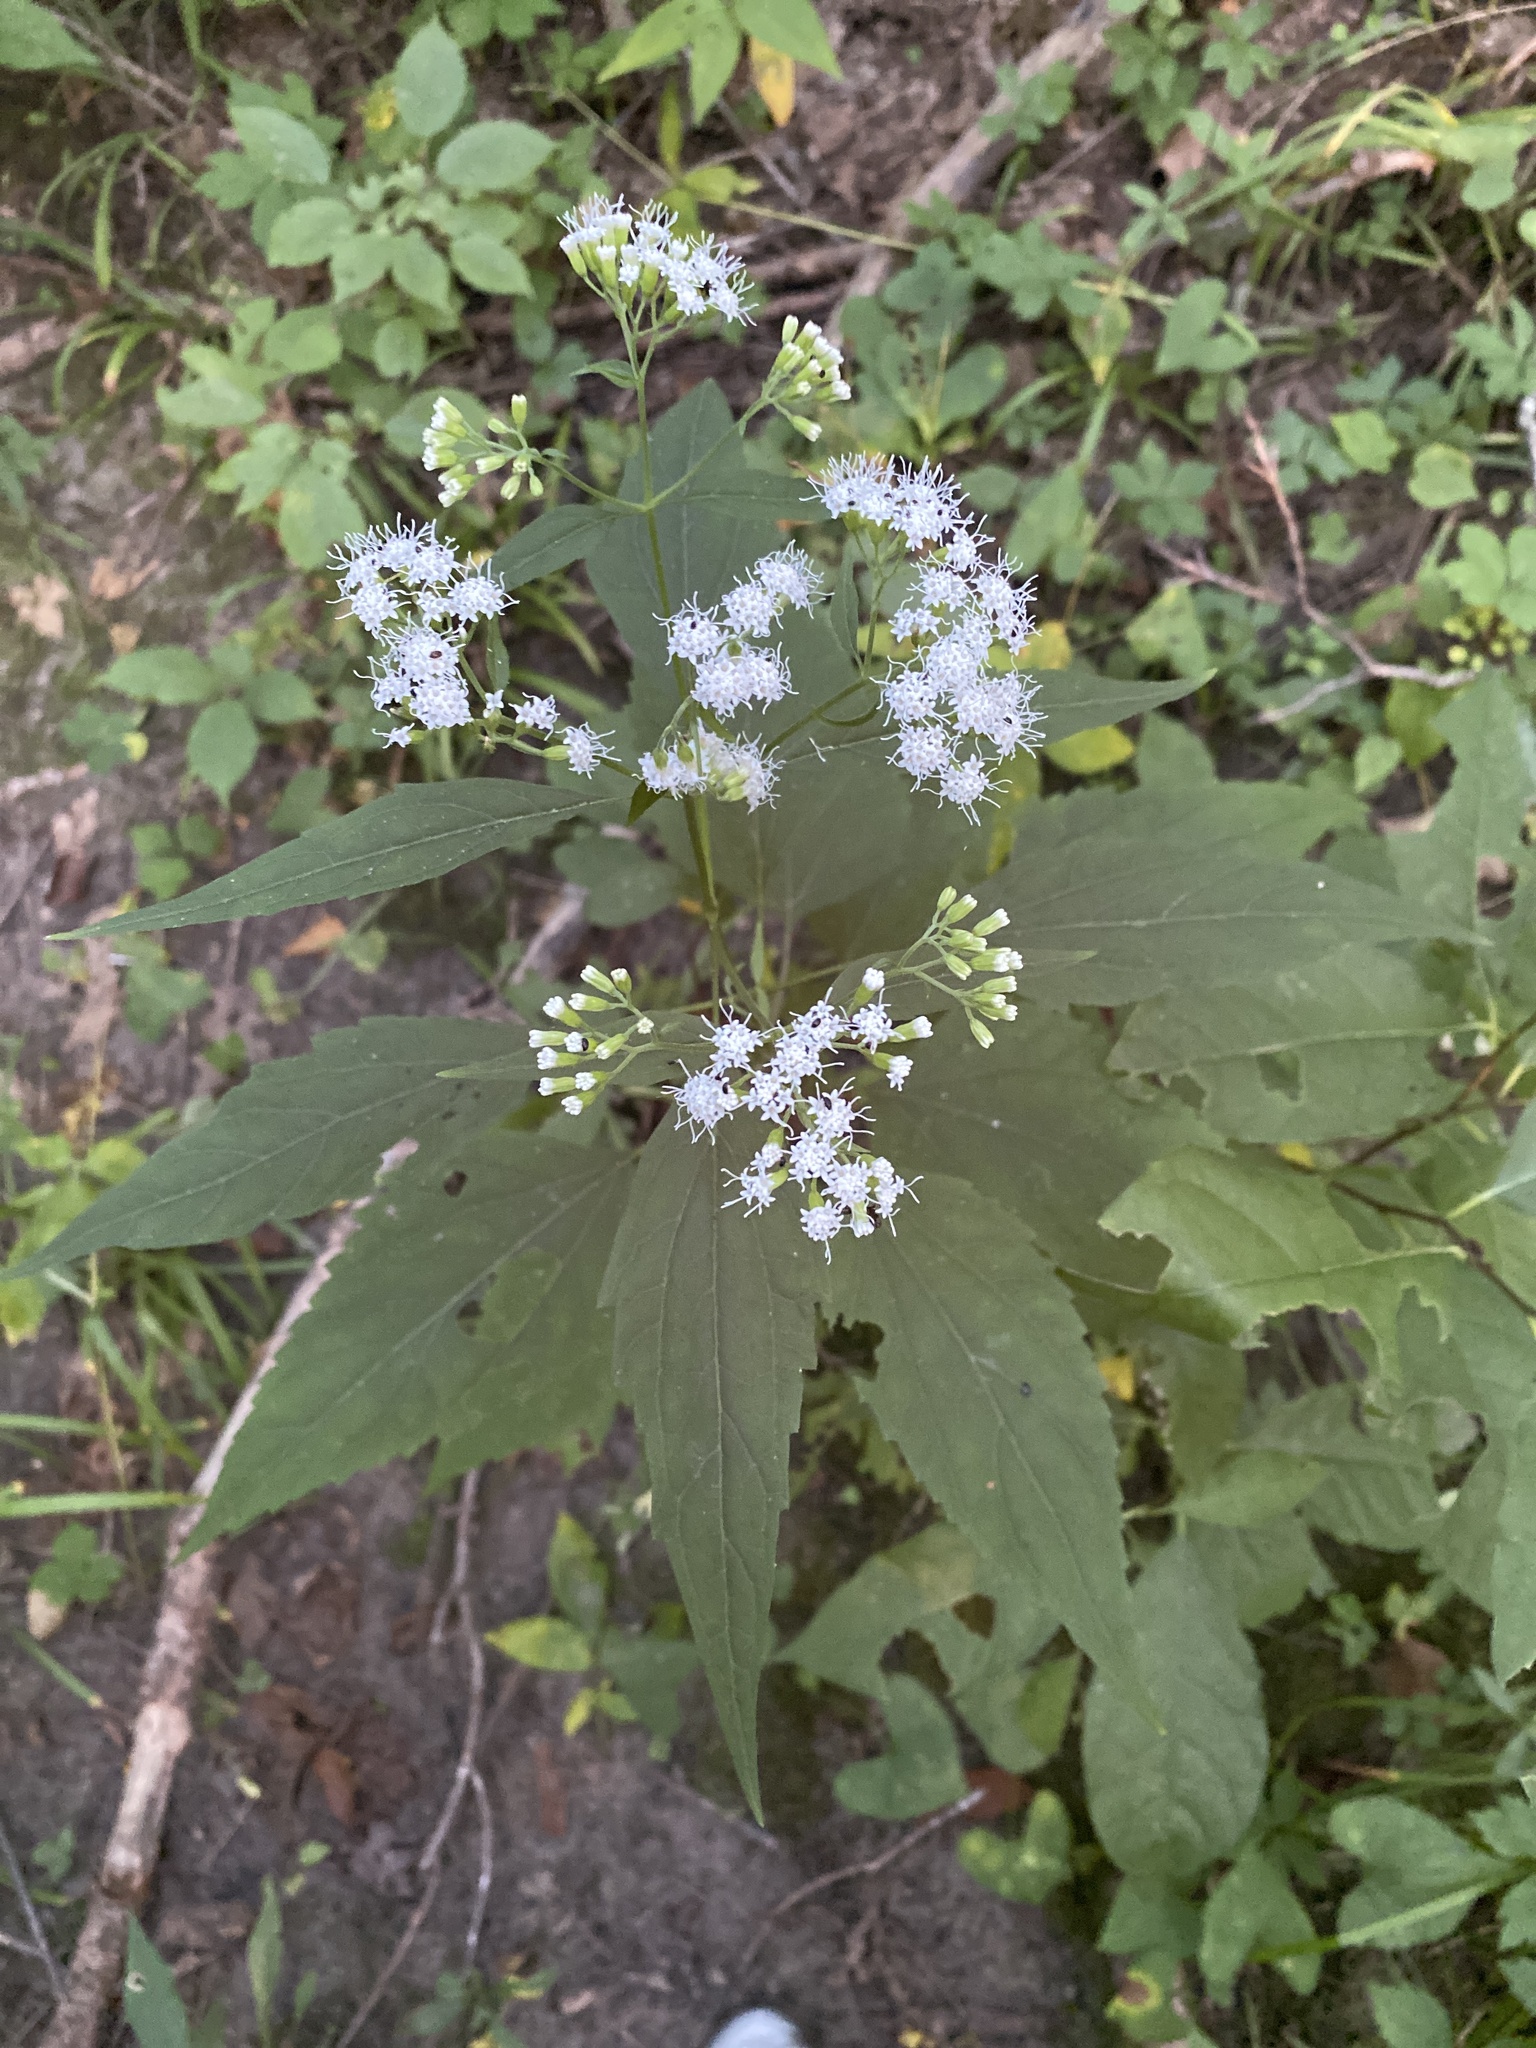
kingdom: Plantae
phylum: Tracheophyta
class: Magnoliopsida
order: Asterales
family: Asteraceae
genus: Ageratina
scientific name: Ageratina altissima
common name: White snakeroot
